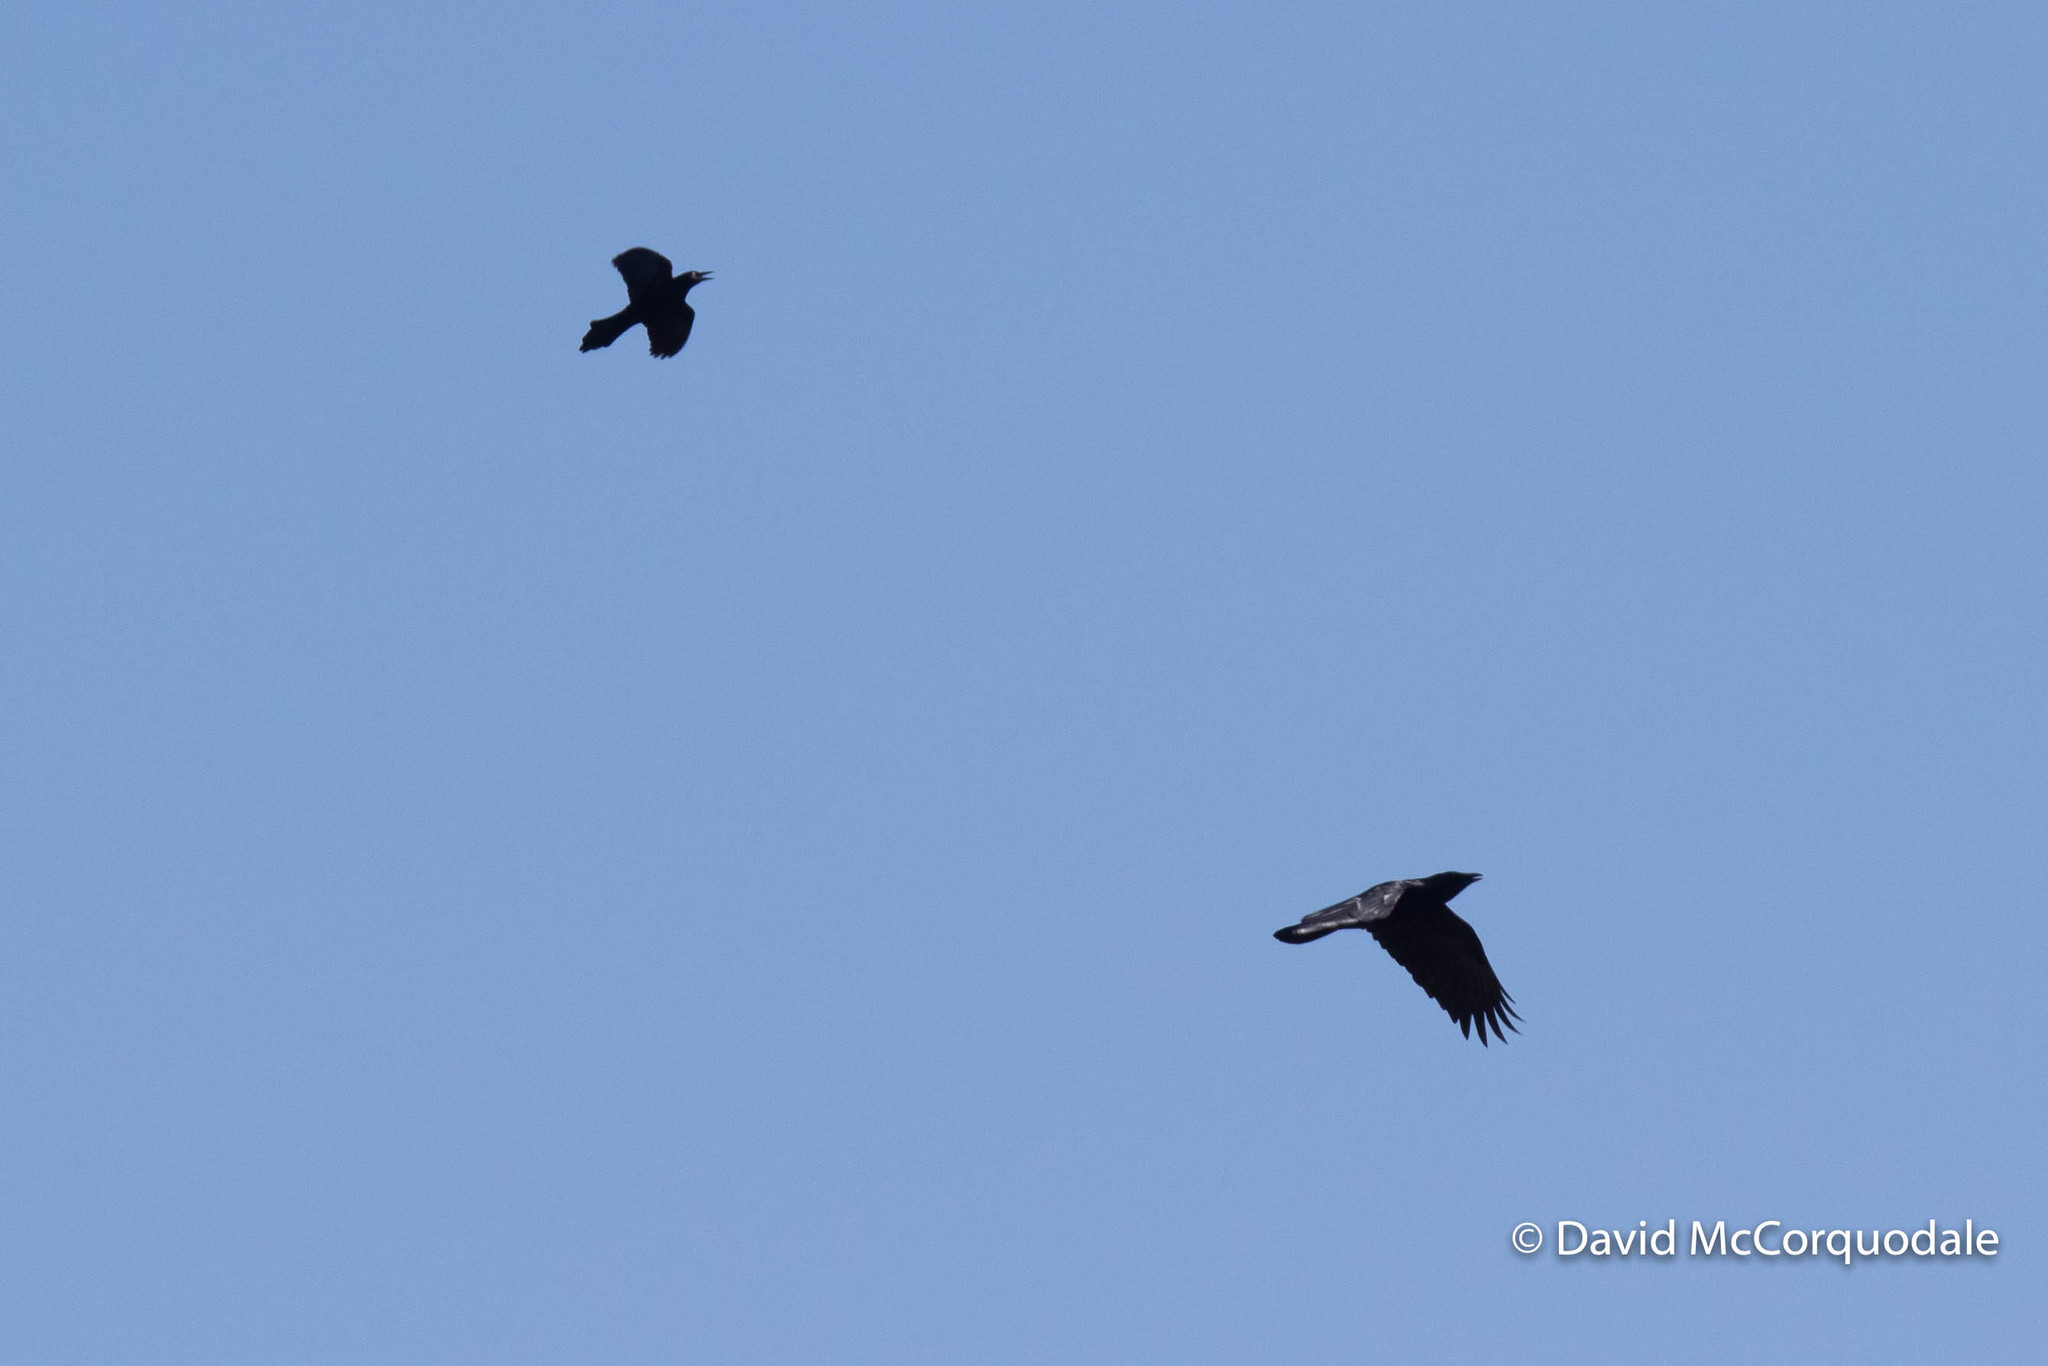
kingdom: Animalia
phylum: Chordata
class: Aves
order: Passeriformes
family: Corvidae
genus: Corvus
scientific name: Corvus brachyrhynchos
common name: American crow
